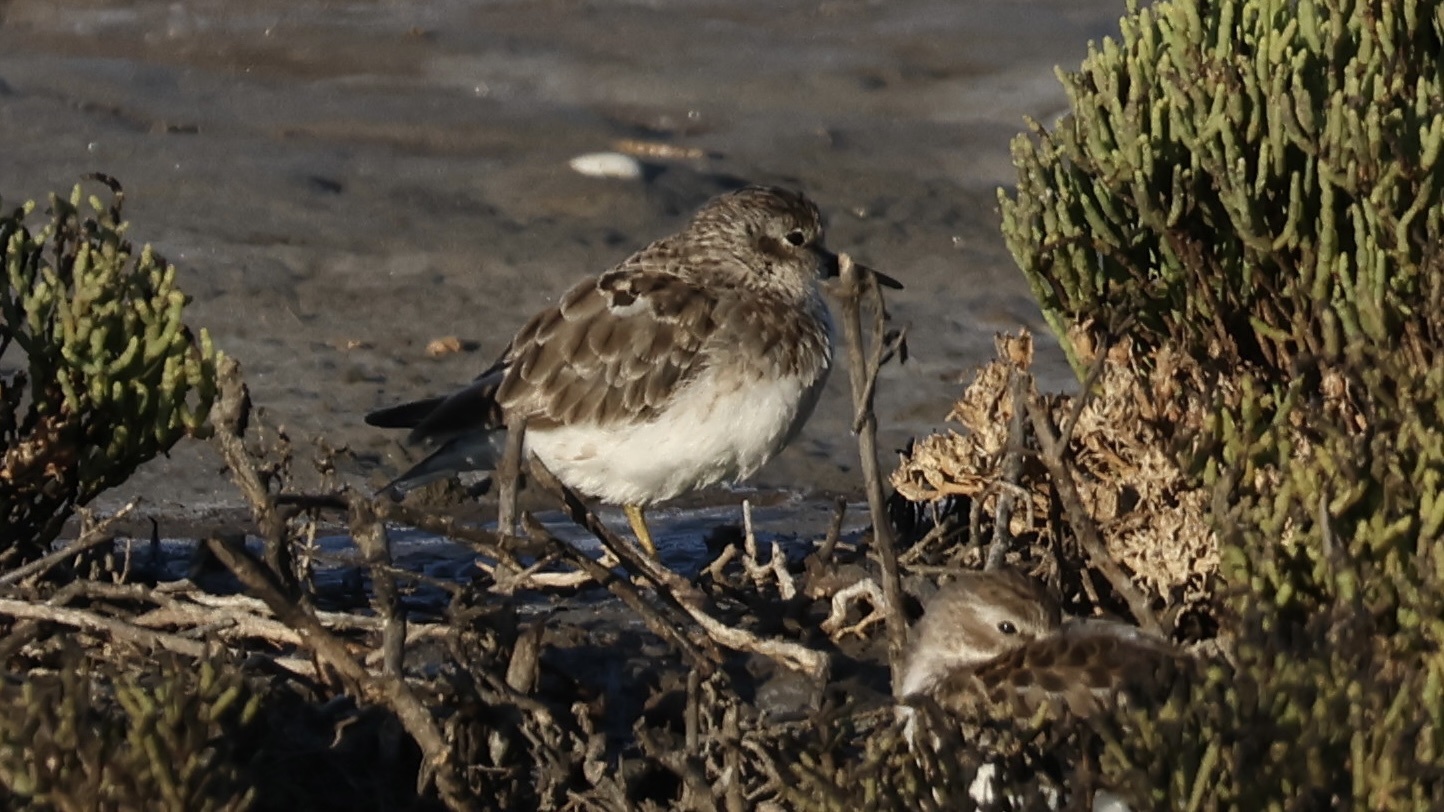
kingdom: Animalia
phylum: Chordata
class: Aves
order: Charadriiformes
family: Scolopacidae
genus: Calidris
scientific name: Calidris minutilla
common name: Least sandpiper
